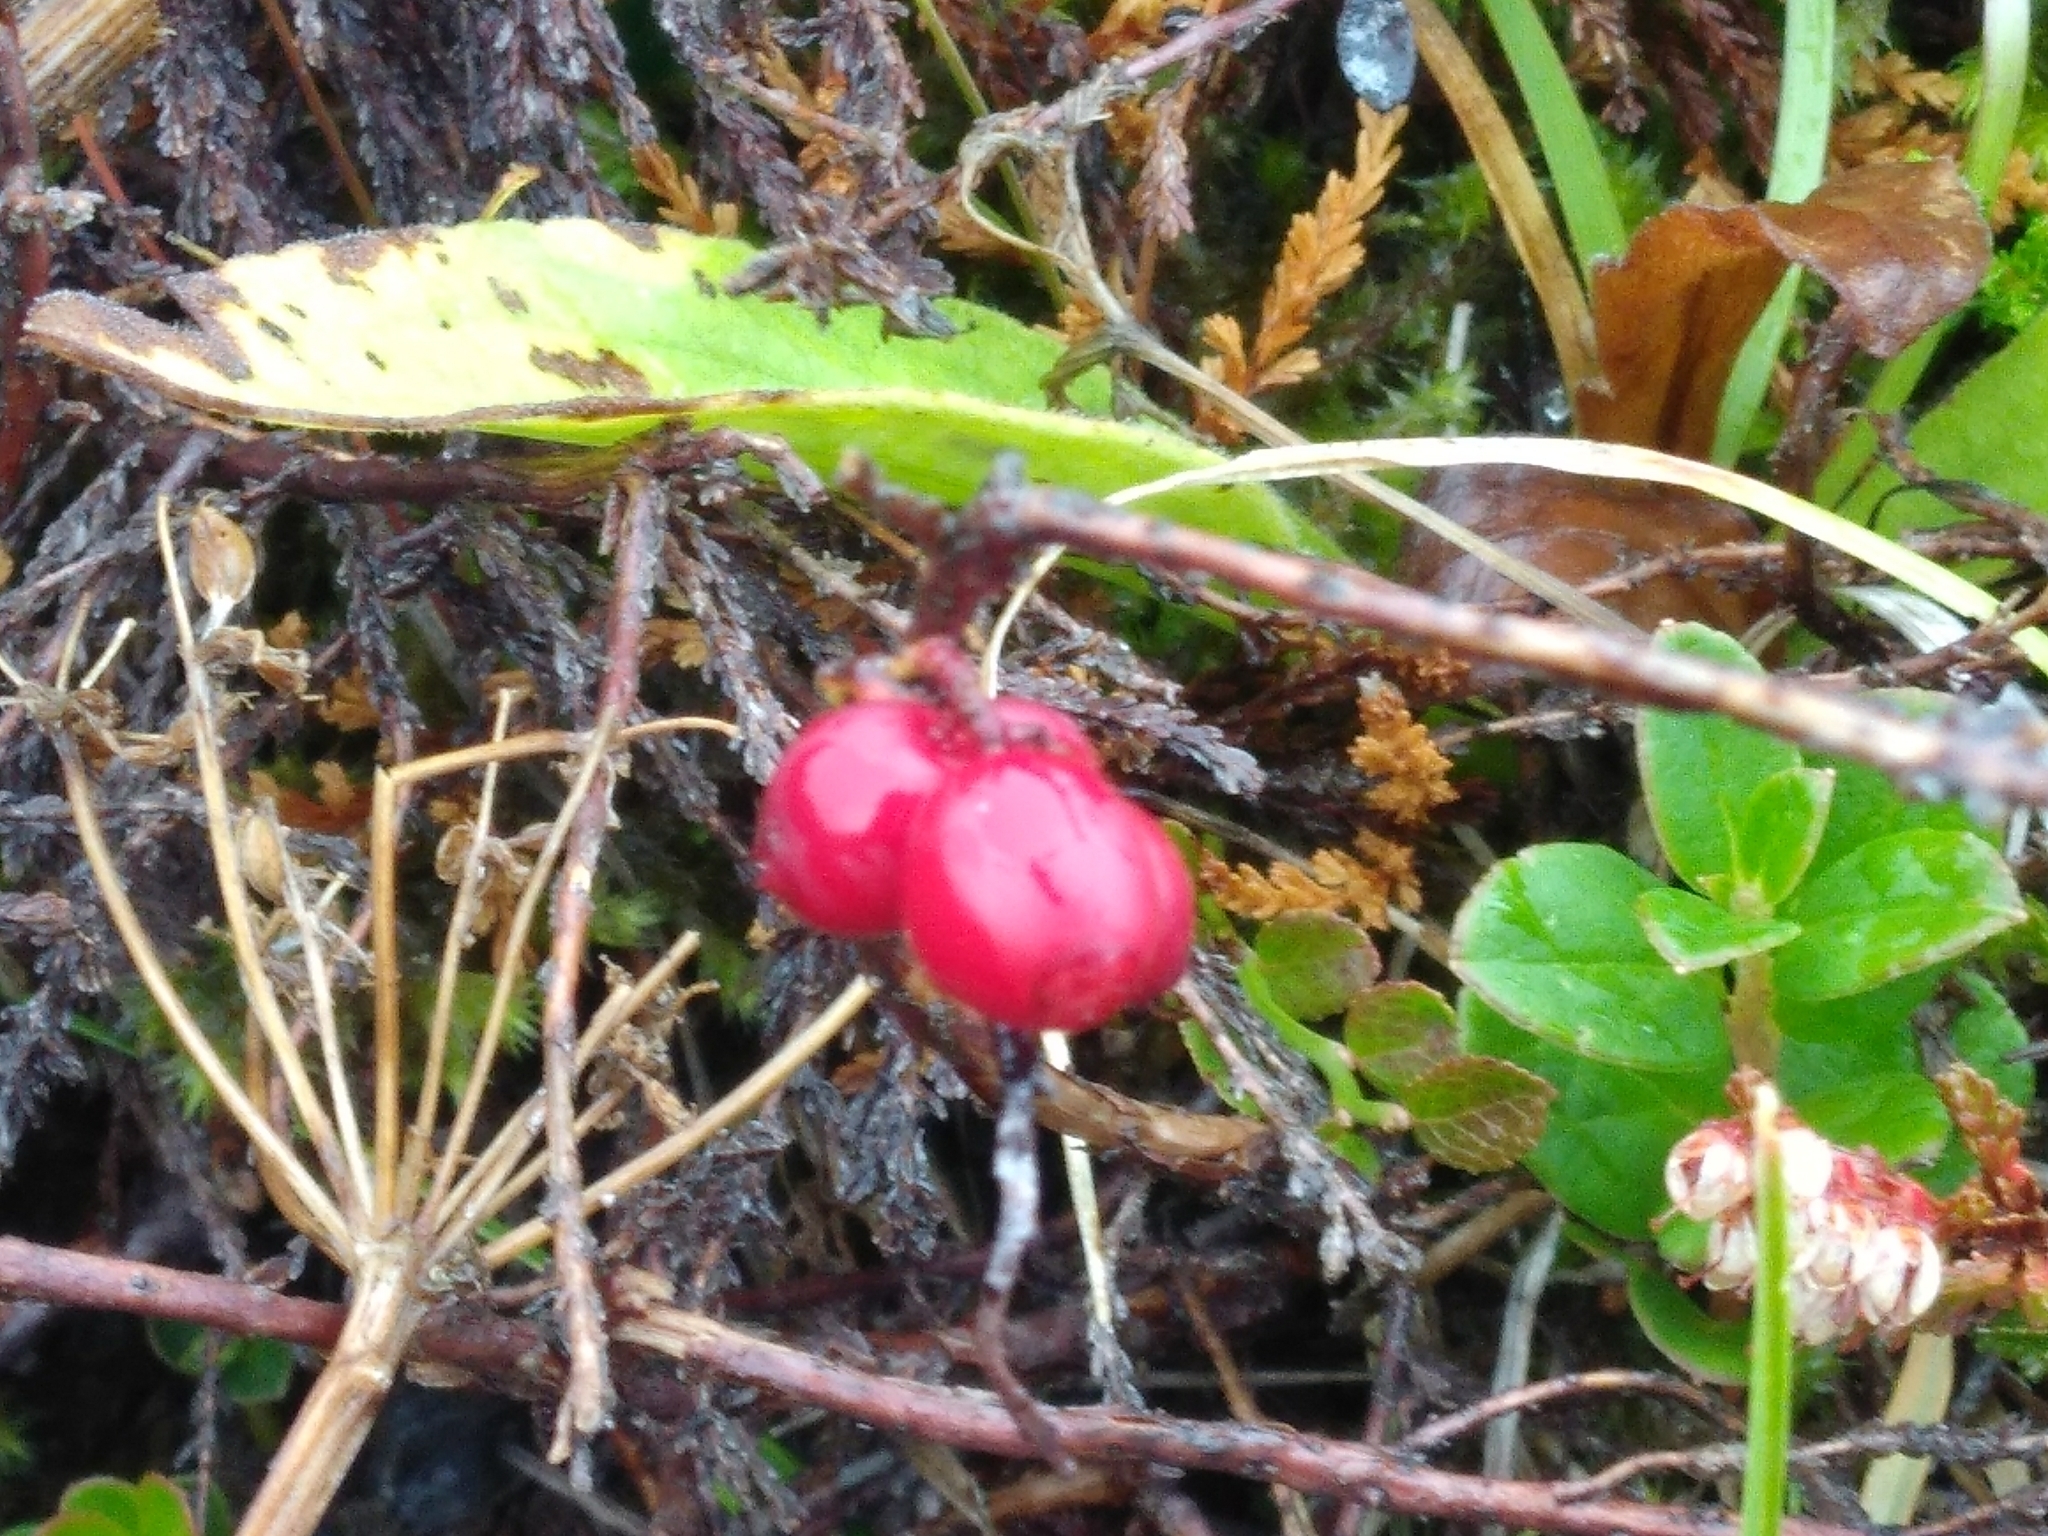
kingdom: Plantae
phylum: Tracheophyta
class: Magnoliopsida
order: Ericales
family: Ericaceae
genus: Vaccinium
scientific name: Vaccinium vitis-idaea
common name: Cowberry
